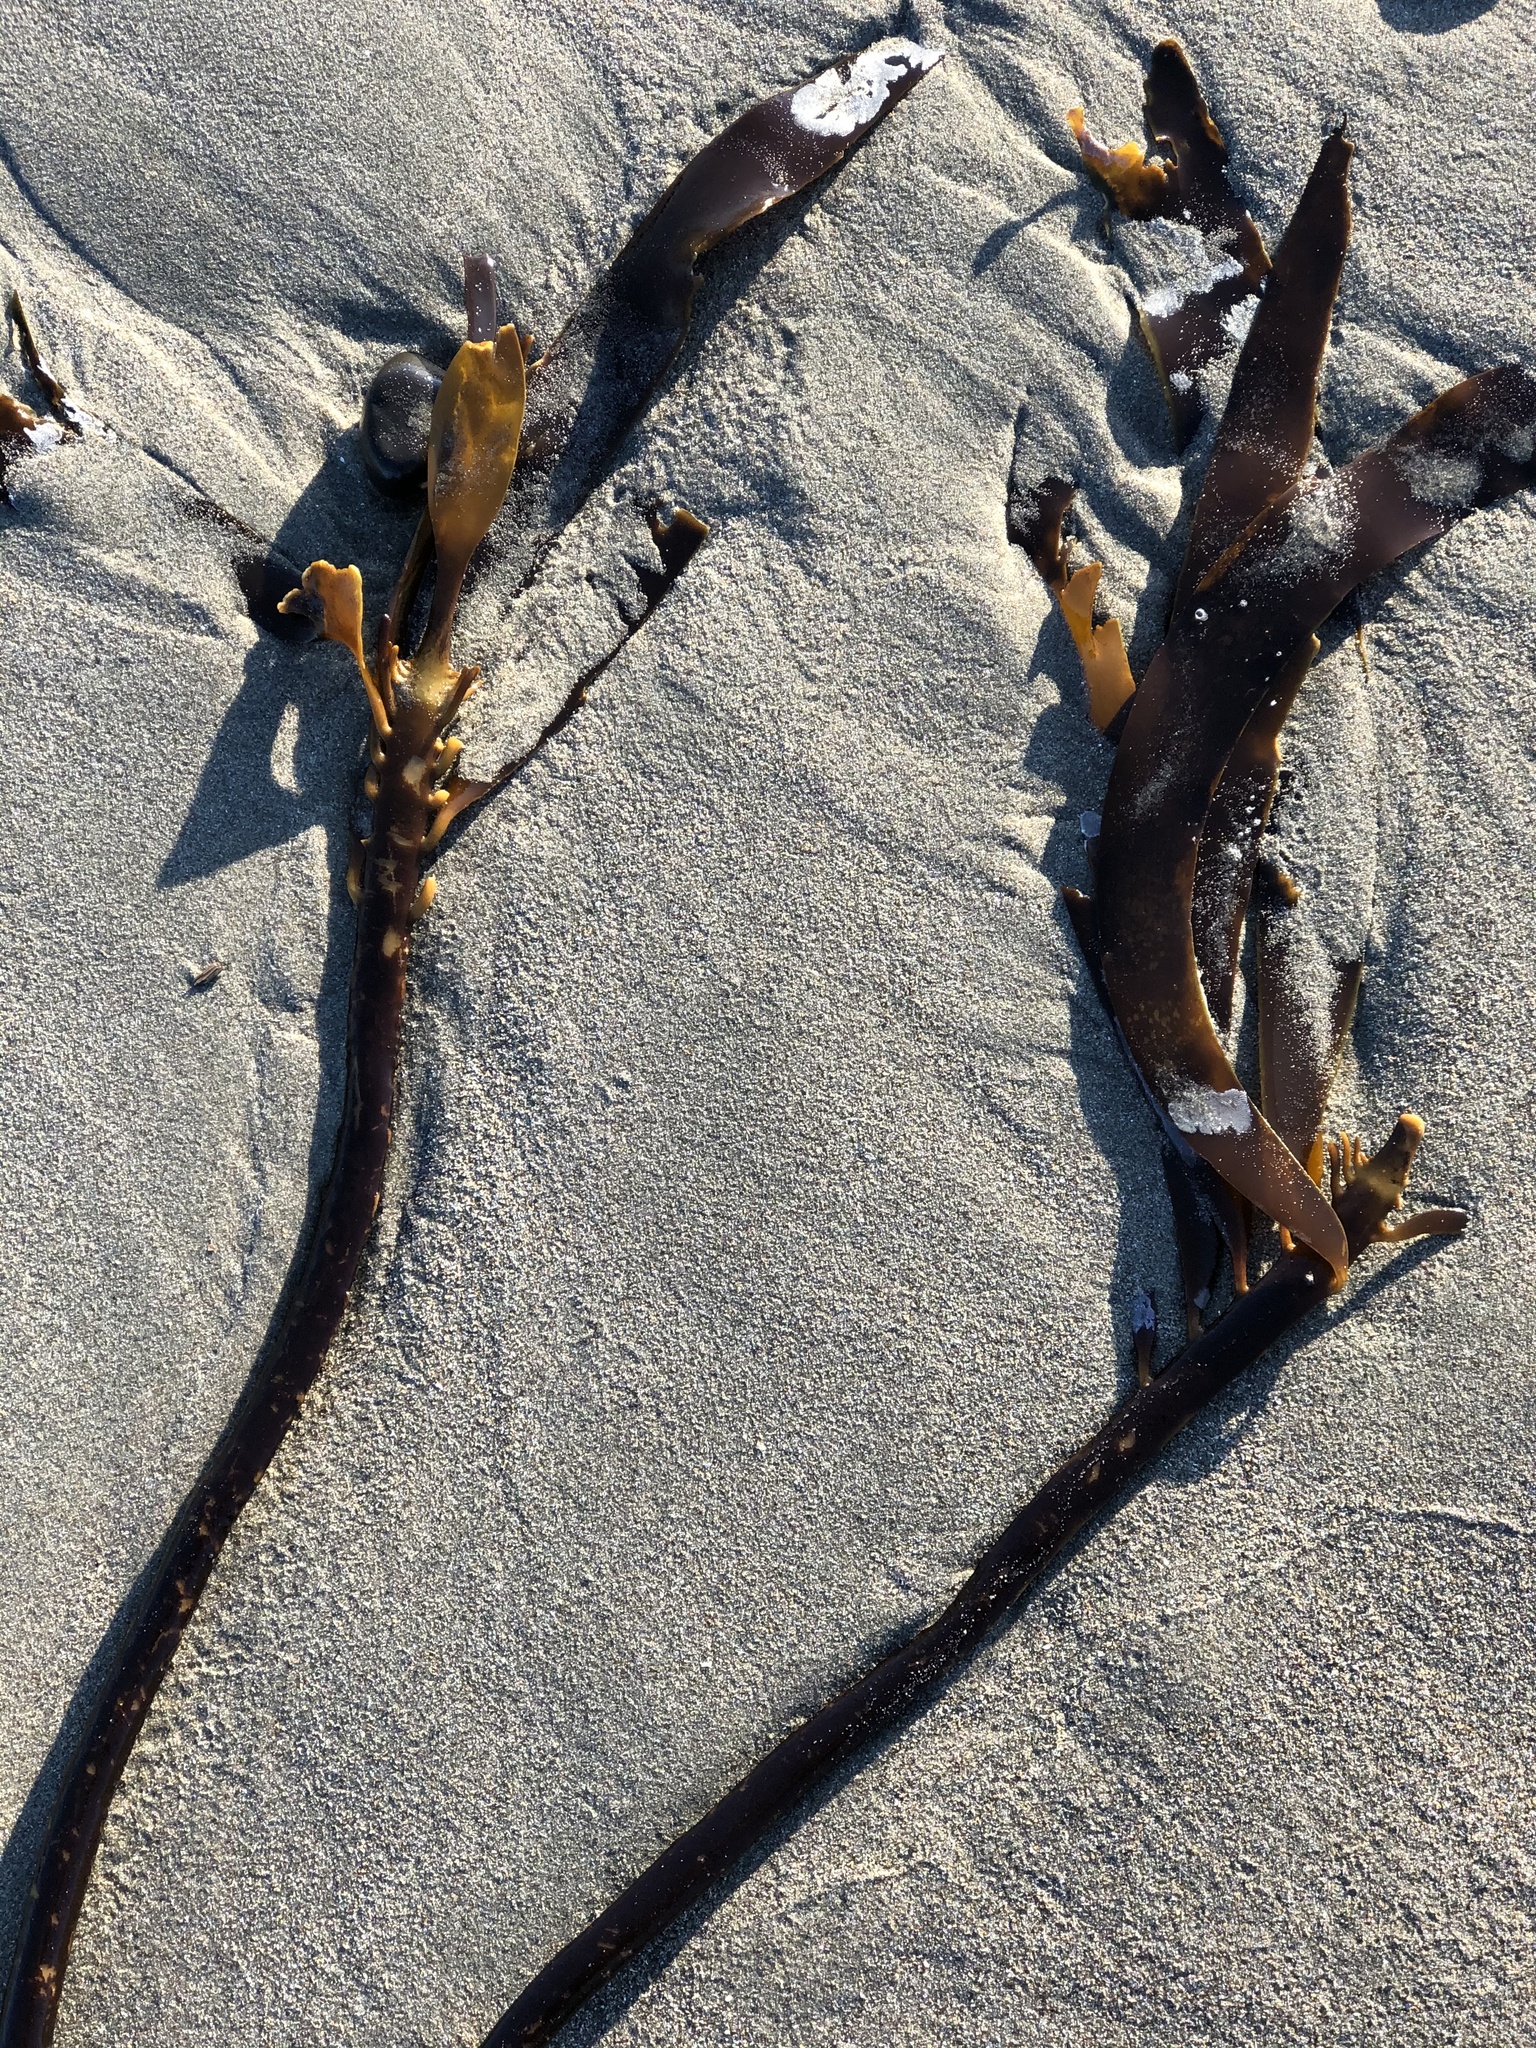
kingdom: Chromista
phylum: Ochrophyta
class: Phaeophyceae
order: Laminariales
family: Alariaceae
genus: Pterygophora
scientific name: Pterygophora californica
